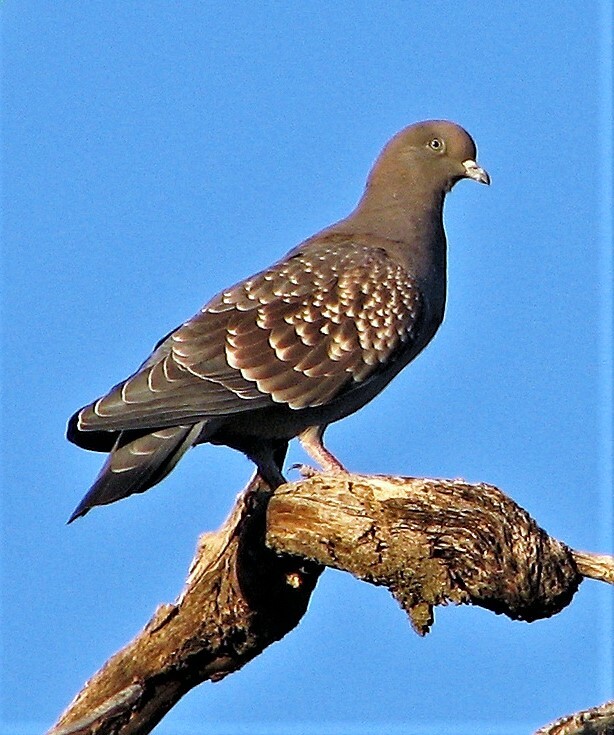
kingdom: Animalia
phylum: Chordata
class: Aves
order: Columbiformes
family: Columbidae
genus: Patagioenas
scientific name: Patagioenas maculosa
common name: Spot-winged pigeon
